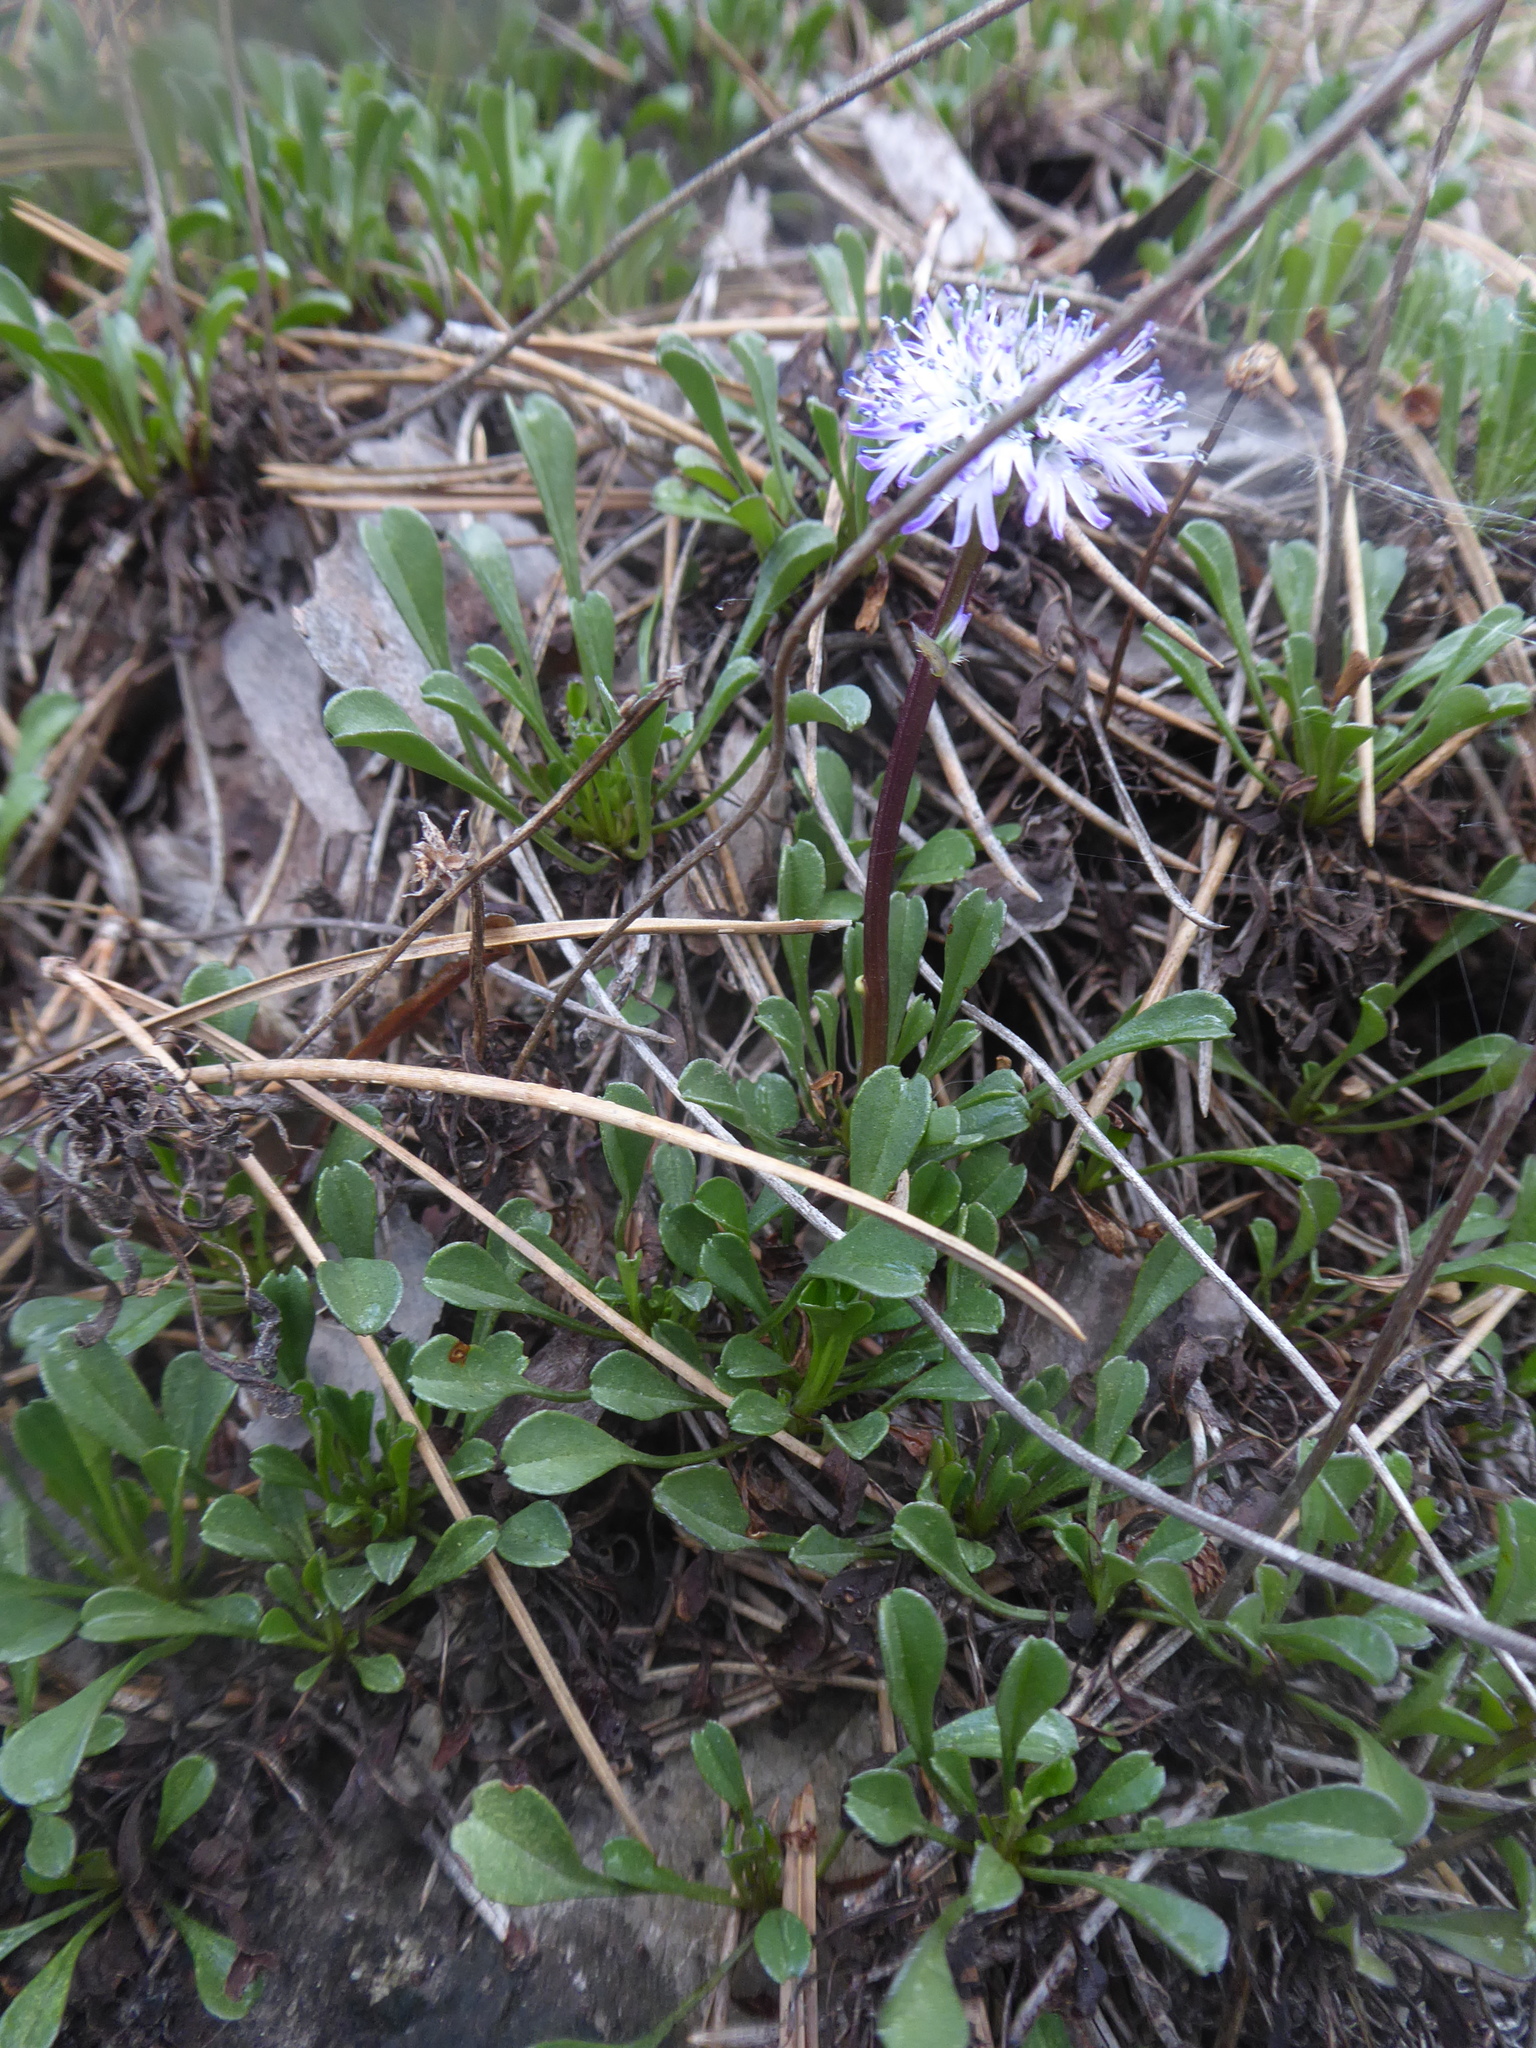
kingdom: Plantae
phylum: Tracheophyta
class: Magnoliopsida
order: Lamiales
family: Plantaginaceae
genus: Globularia
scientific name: Globularia cordifolia
